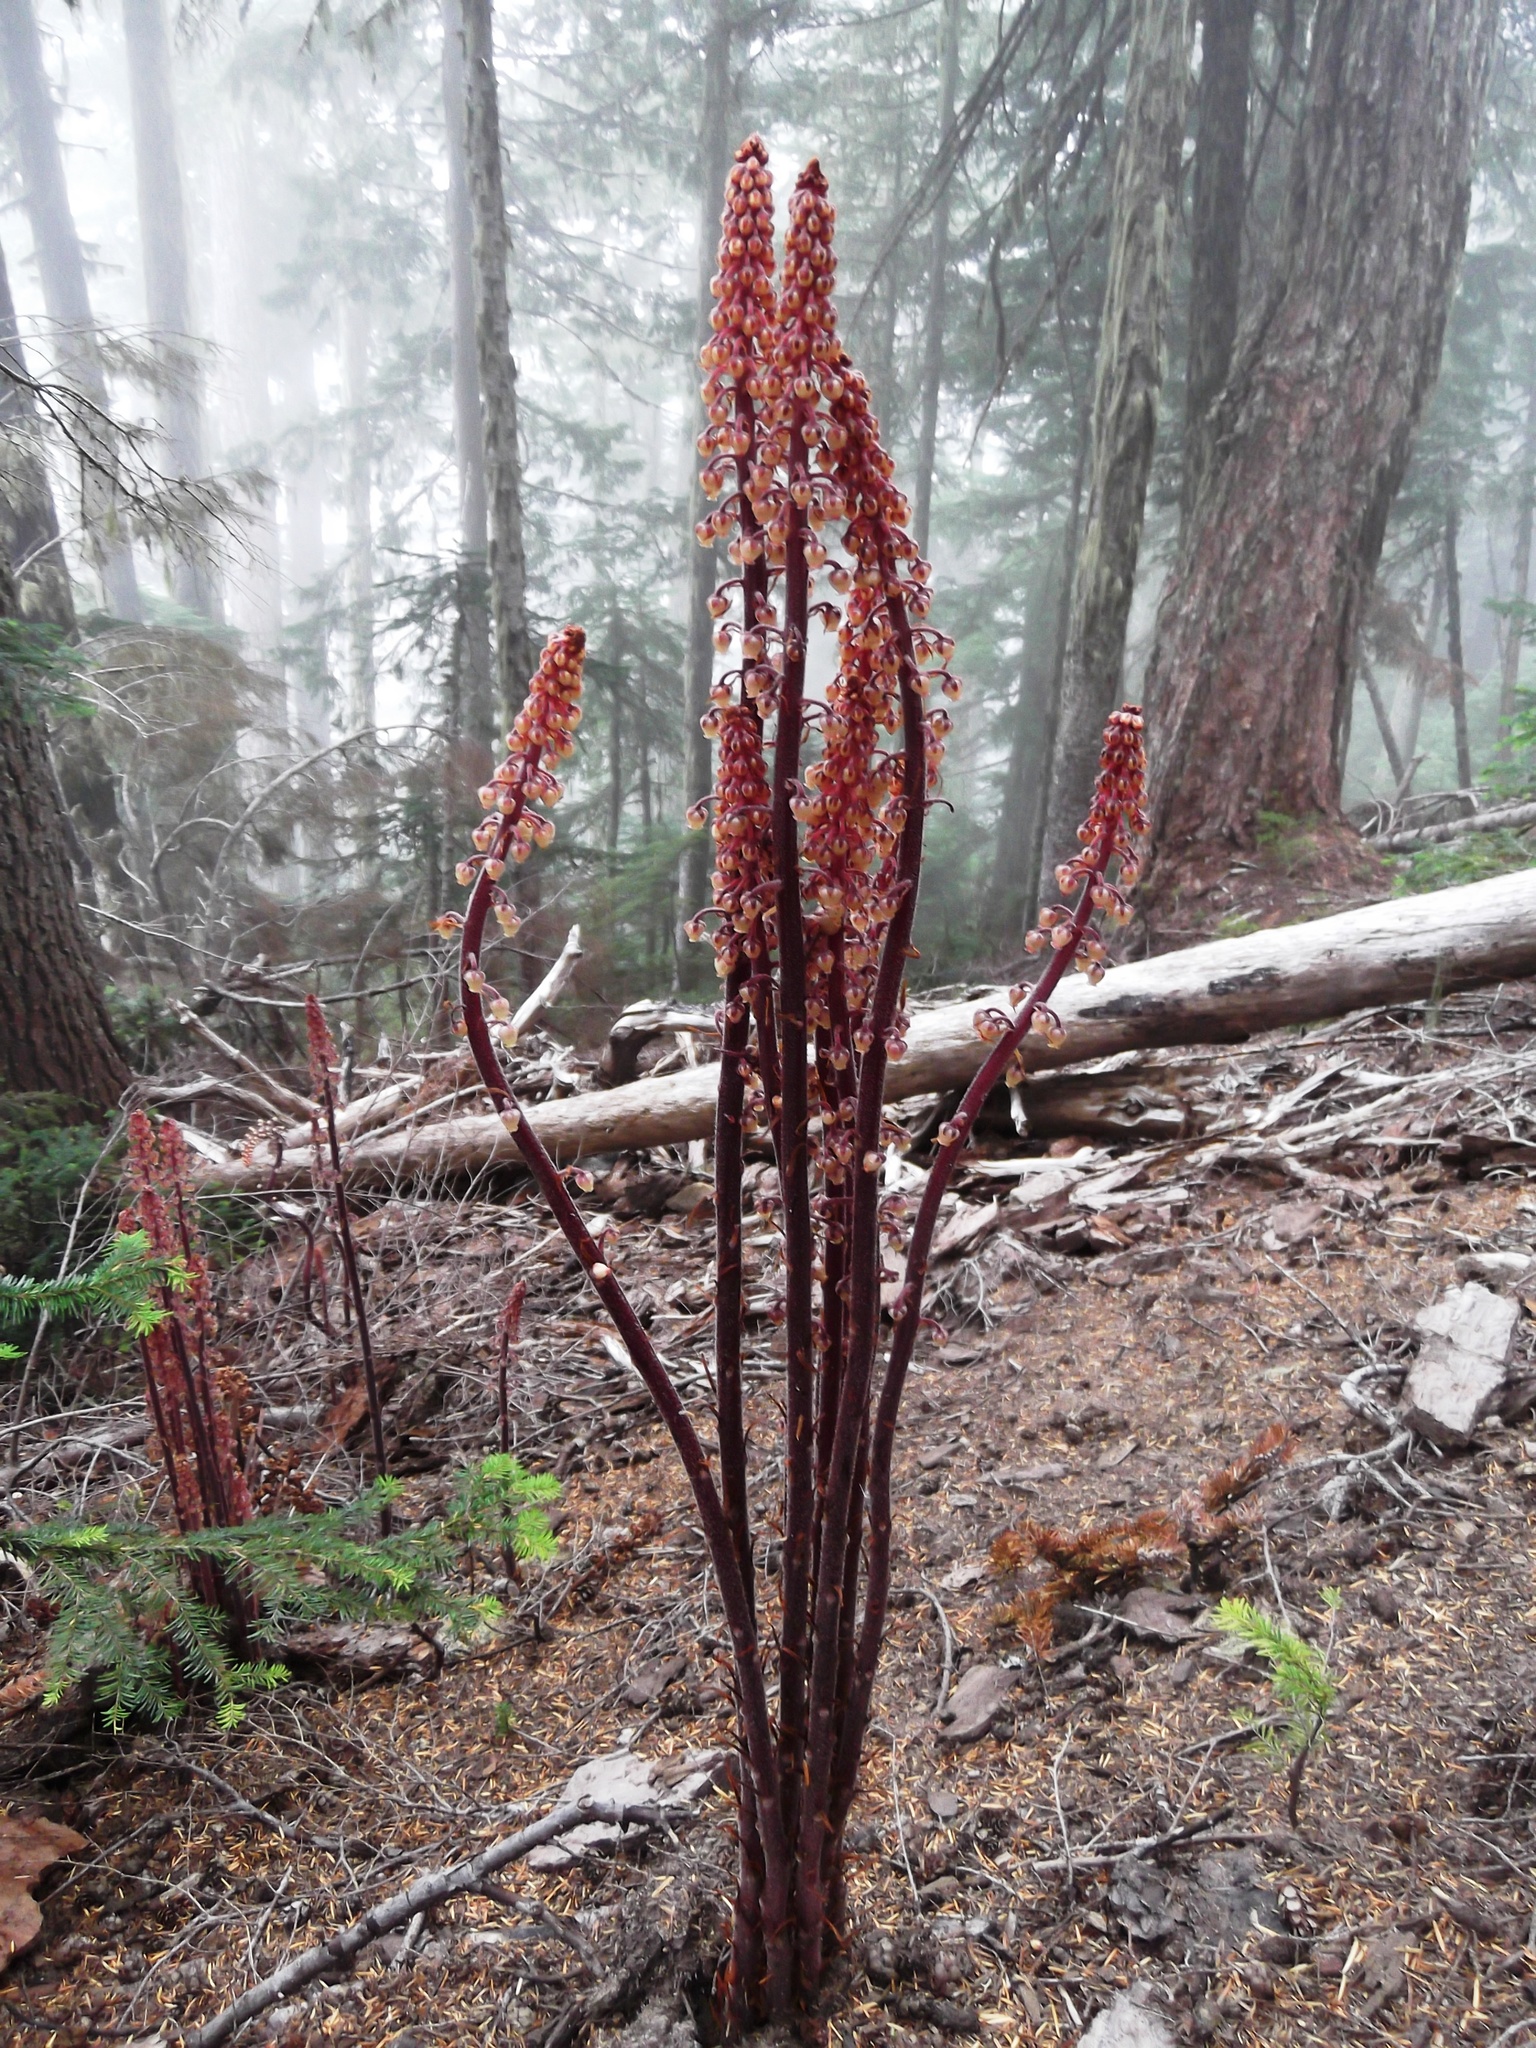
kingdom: Plantae
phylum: Tracheophyta
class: Magnoliopsida
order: Ericales
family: Ericaceae
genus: Pterospora
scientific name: Pterospora andromedea
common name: Giant bird's-nest
